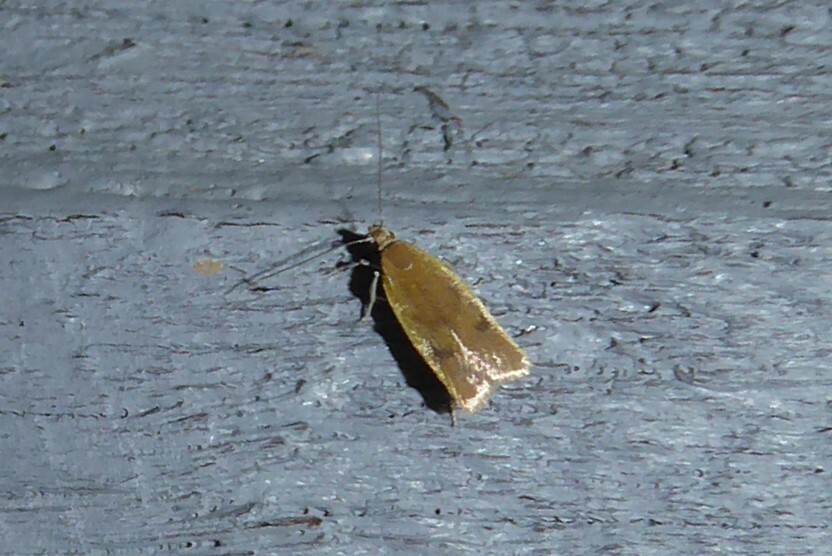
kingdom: Animalia
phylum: Arthropoda
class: Insecta
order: Lepidoptera
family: Oecophoridae
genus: Gymnobathra
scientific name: Gymnobathra parca
